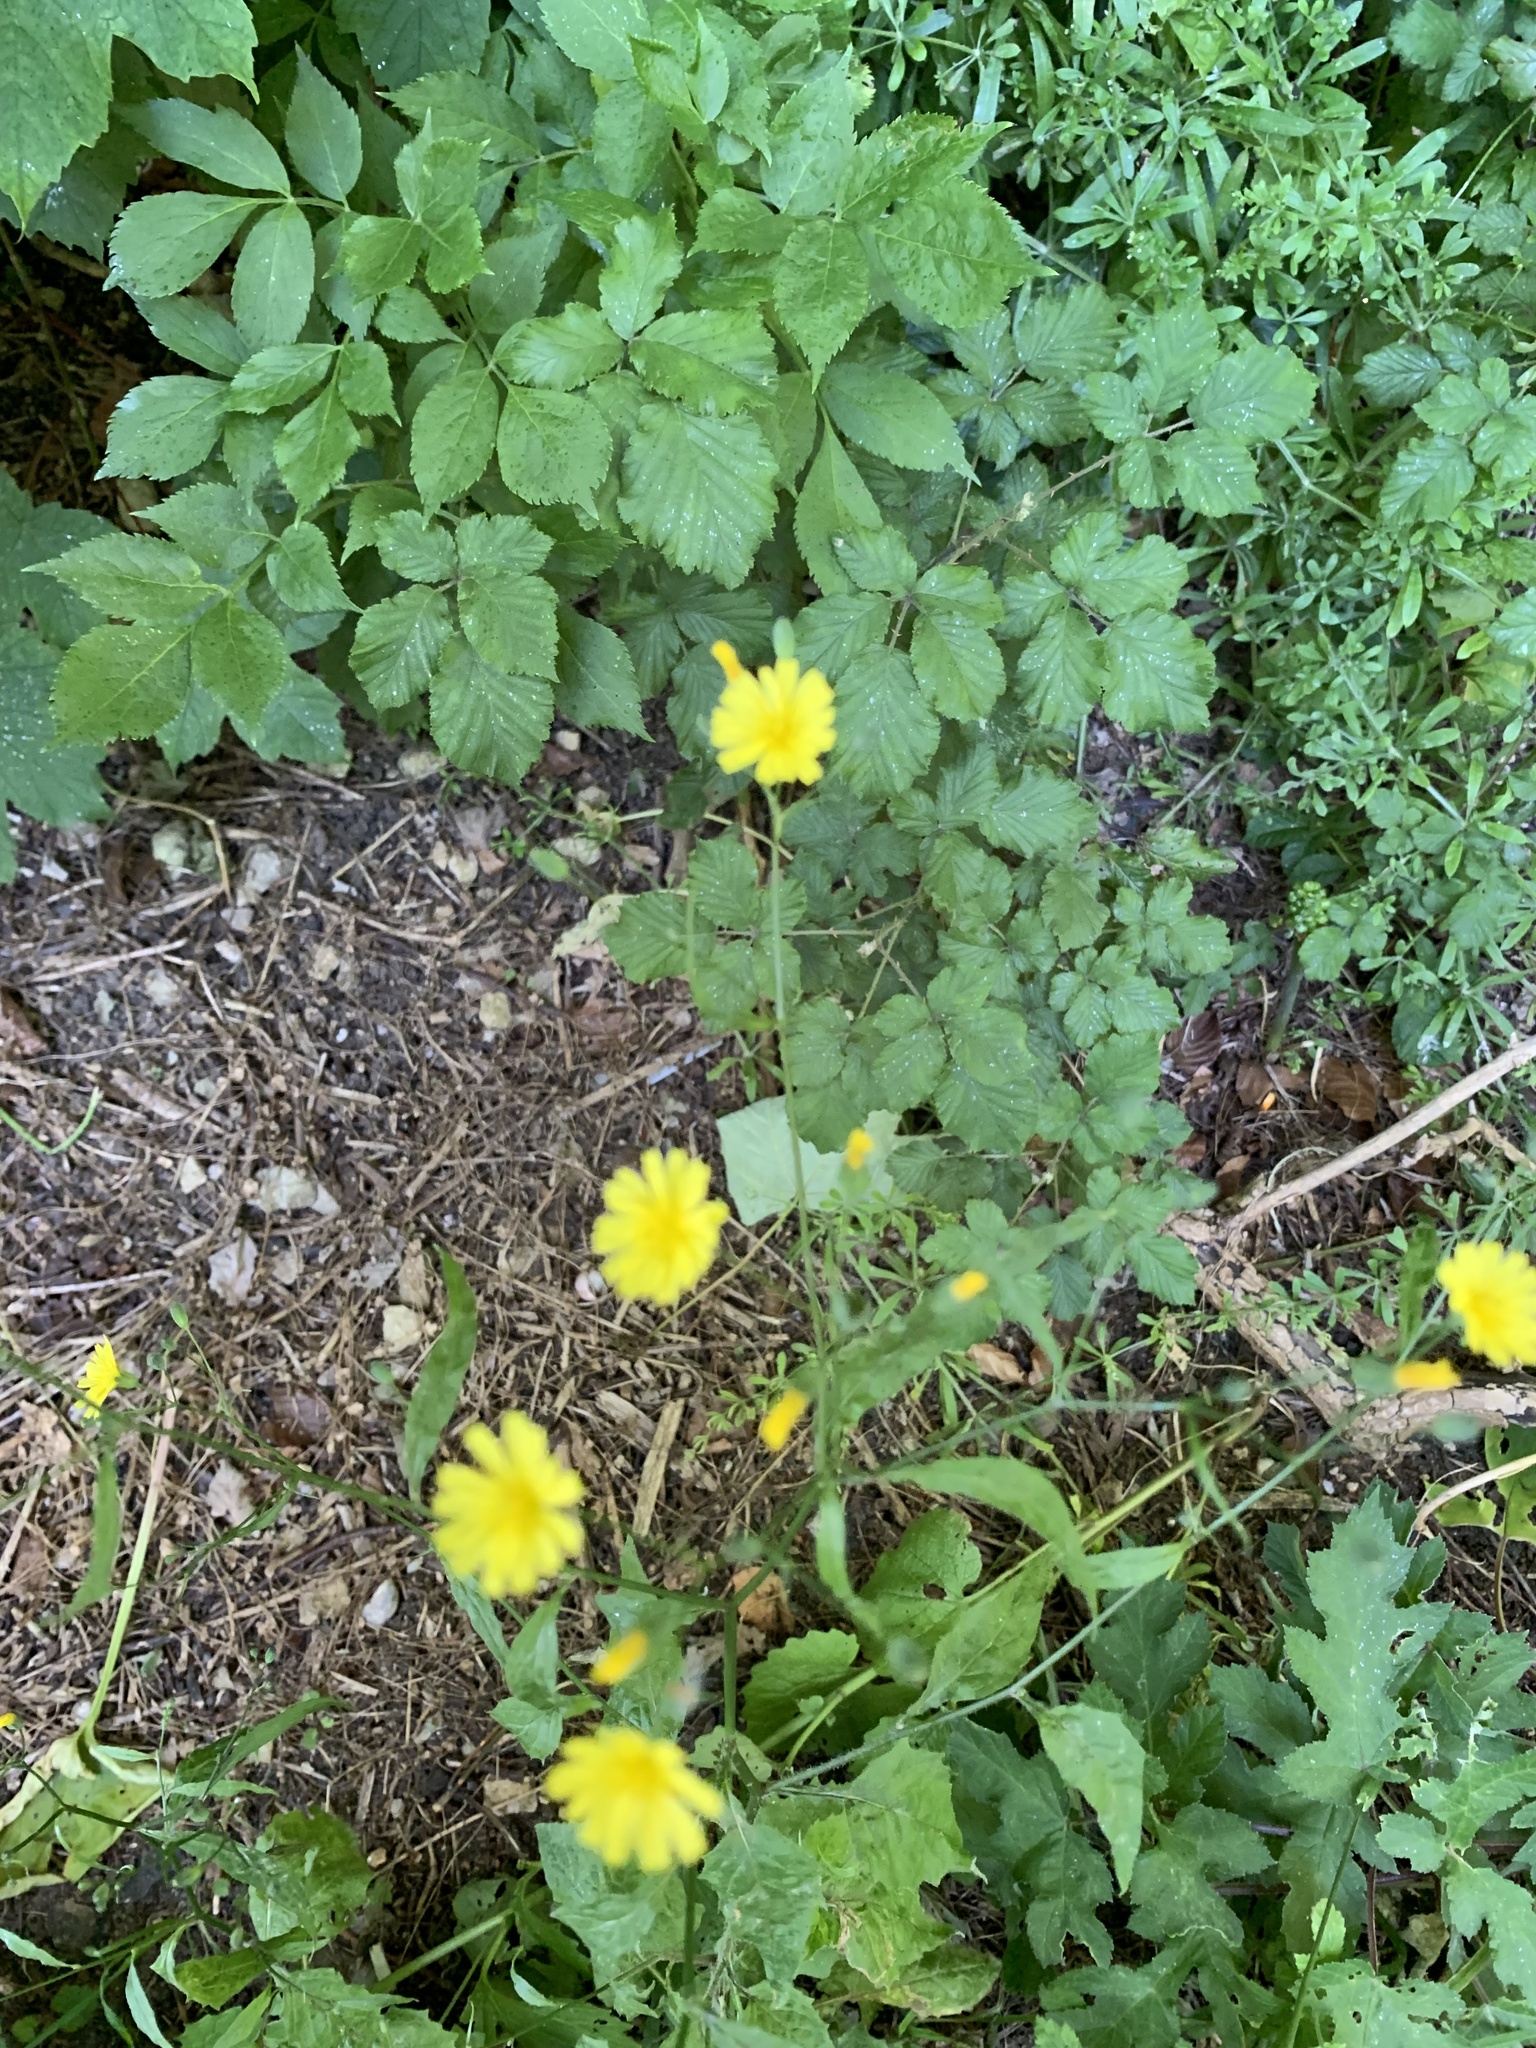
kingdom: Plantae
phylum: Tracheophyta
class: Magnoliopsida
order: Asterales
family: Asteraceae
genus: Lapsana
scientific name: Lapsana communis
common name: Nipplewort
